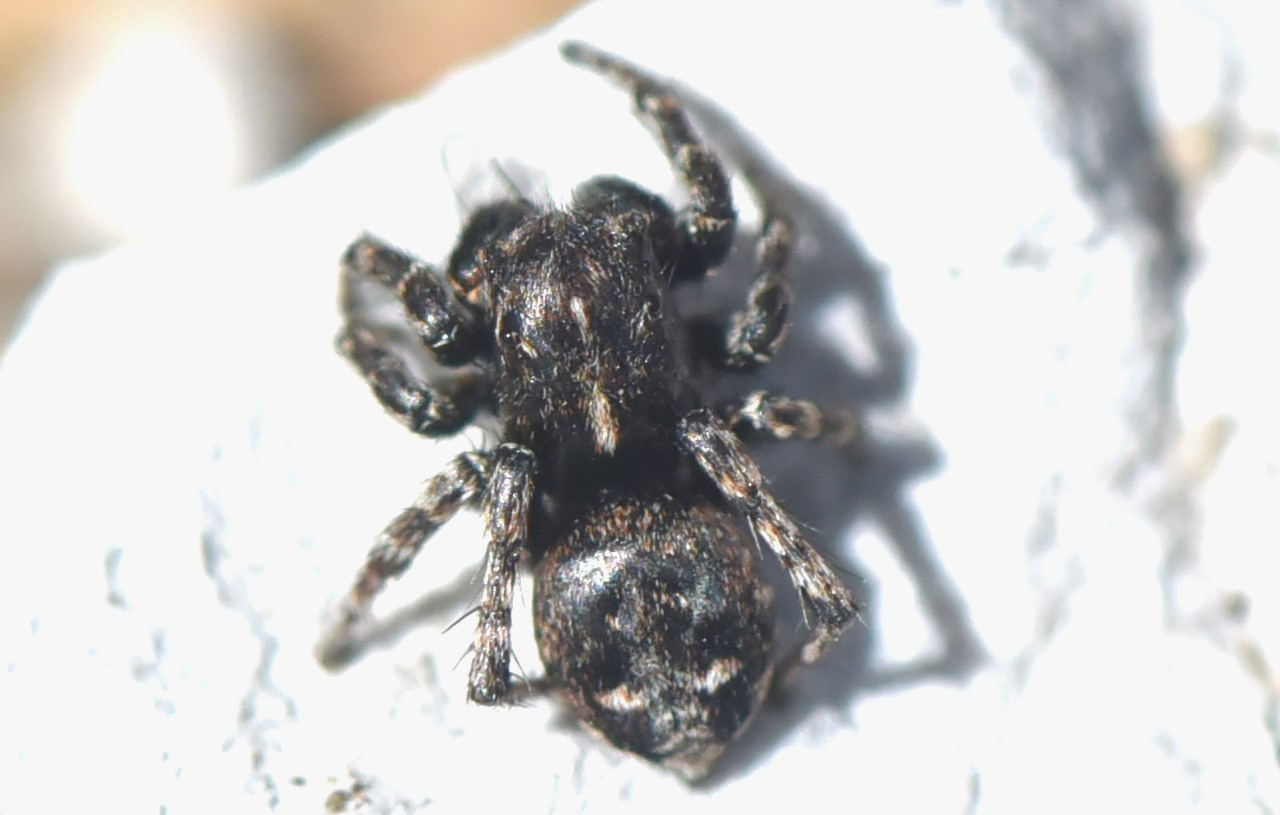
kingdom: Animalia
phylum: Arthropoda
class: Arachnida
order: Araneae
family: Salticidae
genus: Sittisax
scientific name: Sittisax ranieri
